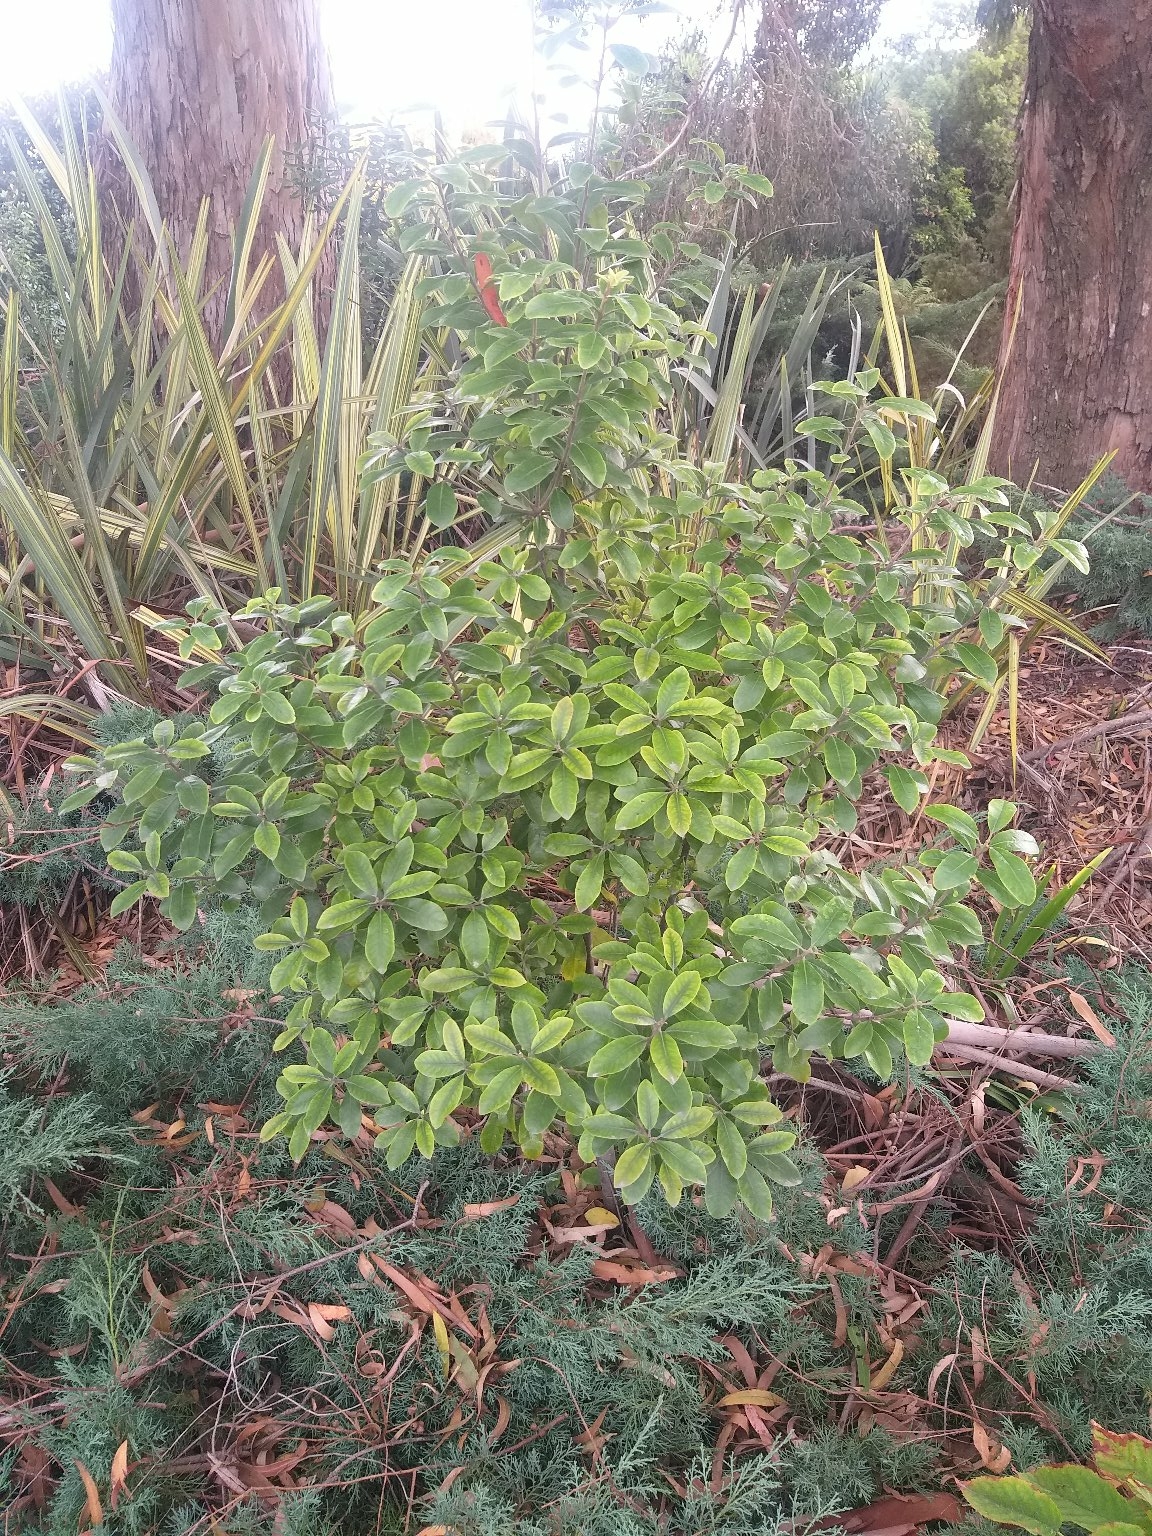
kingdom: Plantae
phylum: Tracheophyta
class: Magnoliopsida
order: Apiales
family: Pittosporaceae
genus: Pittosporum
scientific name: Pittosporum ralphii
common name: Ralph's desertwillow
